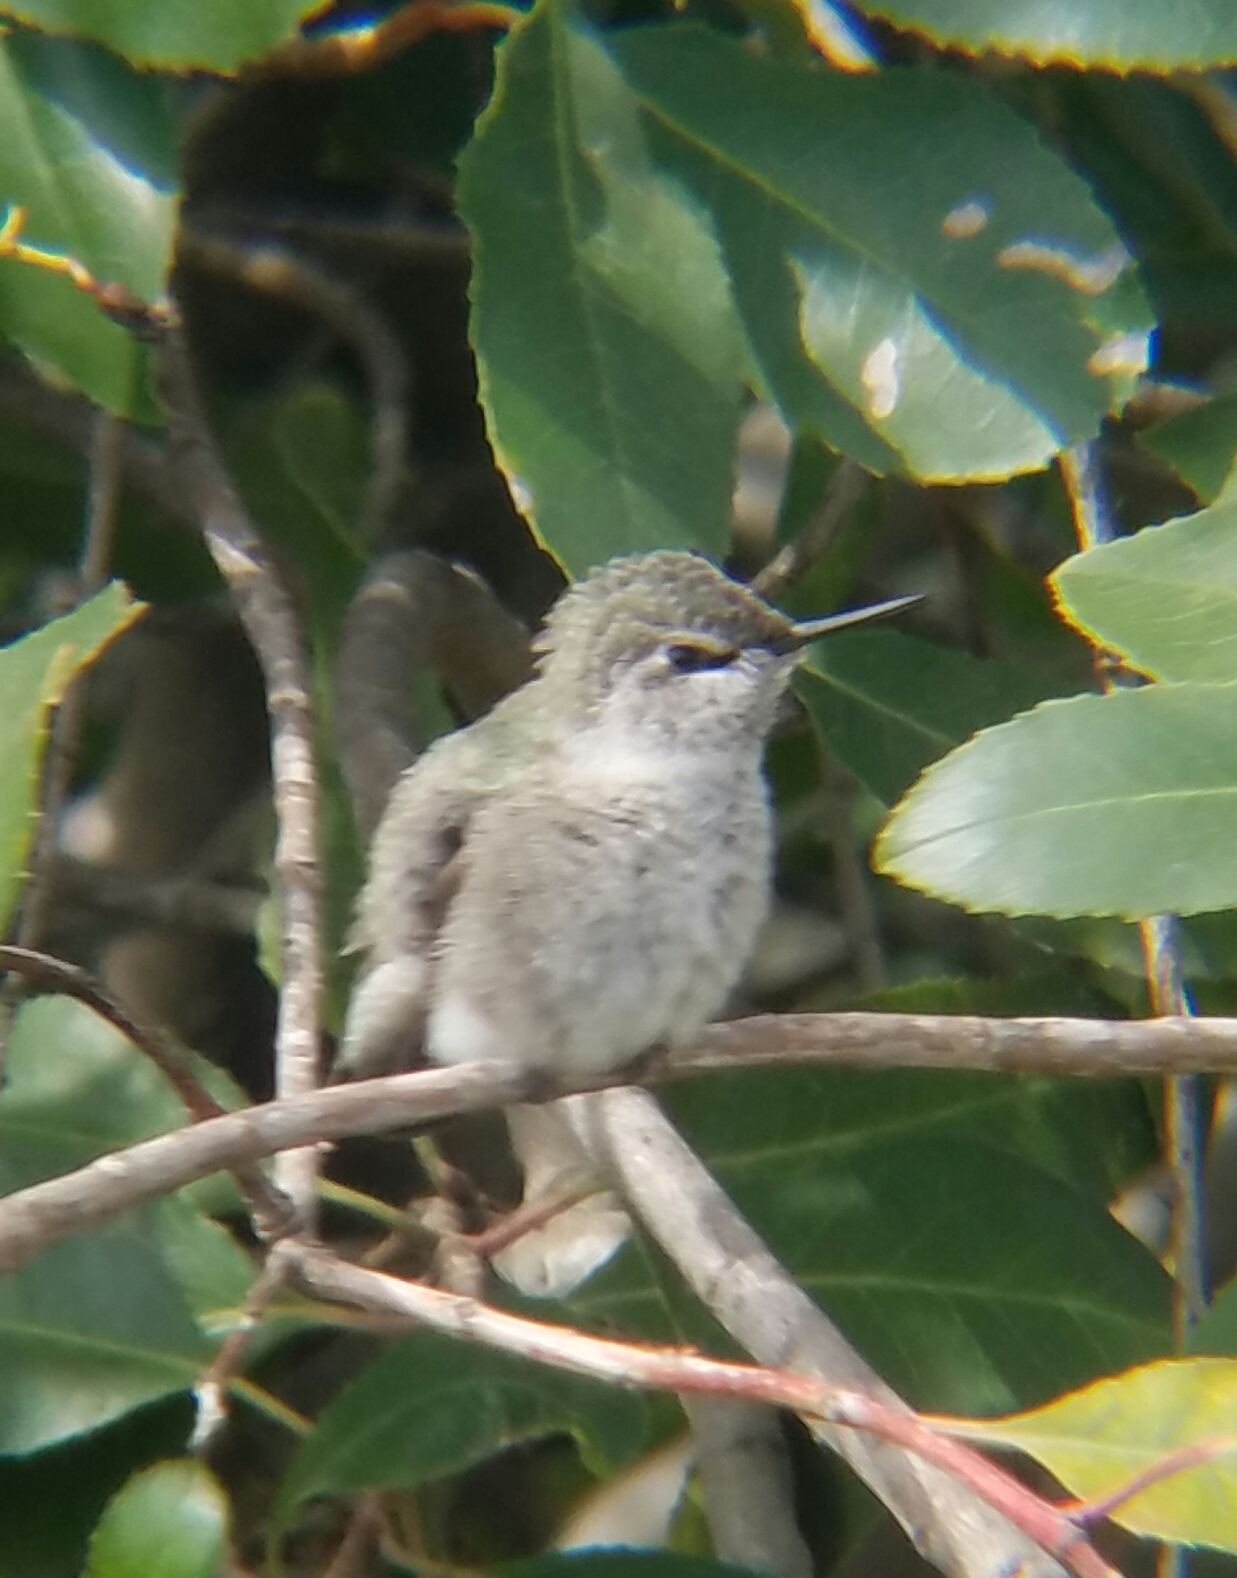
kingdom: Animalia
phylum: Chordata
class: Aves
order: Apodiformes
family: Trochilidae
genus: Calypte
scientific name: Calypte anna
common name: Anna's hummingbird
